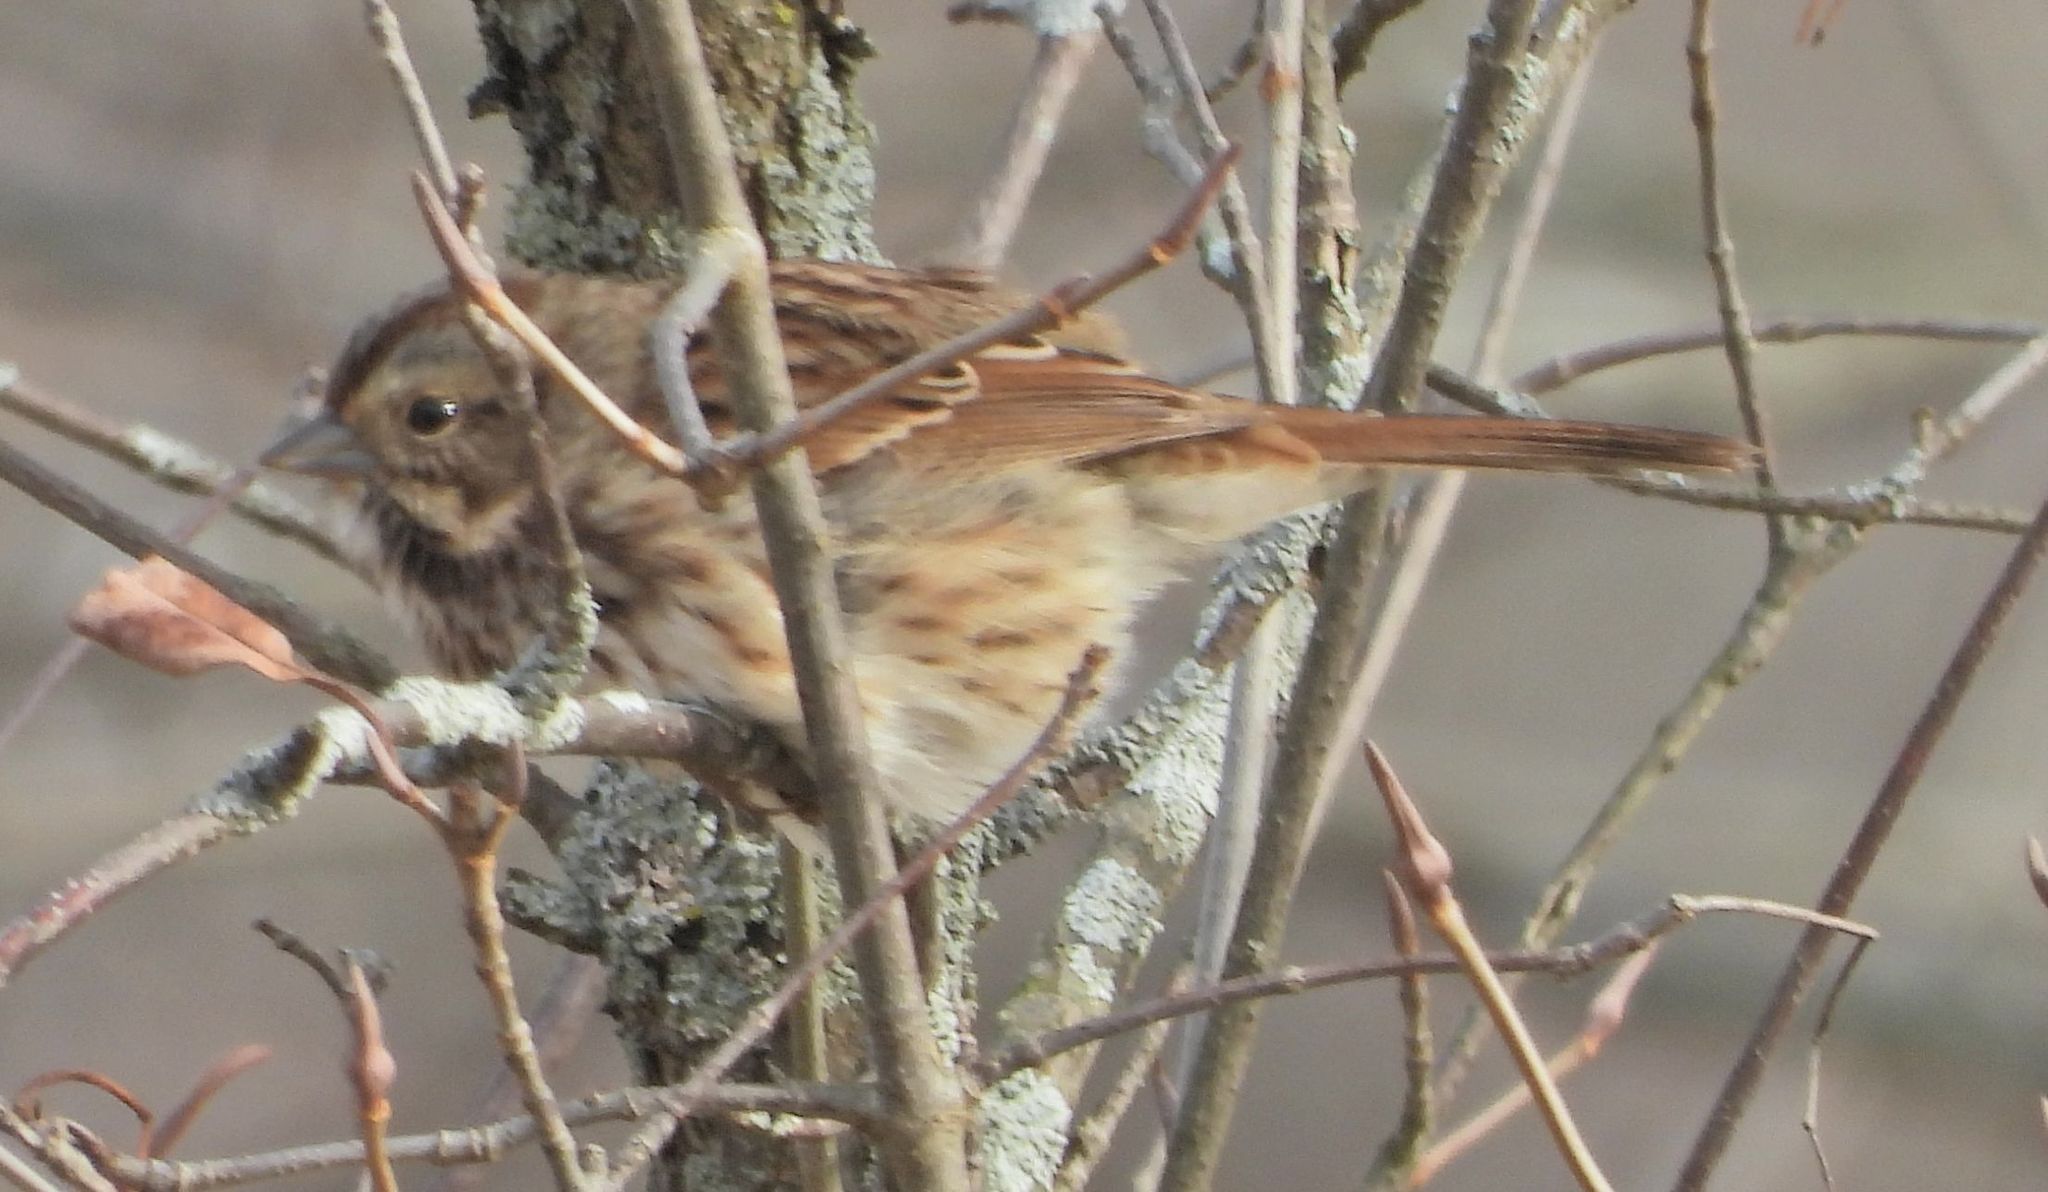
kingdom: Animalia
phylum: Chordata
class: Aves
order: Passeriformes
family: Passerellidae
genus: Melospiza
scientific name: Melospiza melodia
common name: Song sparrow
